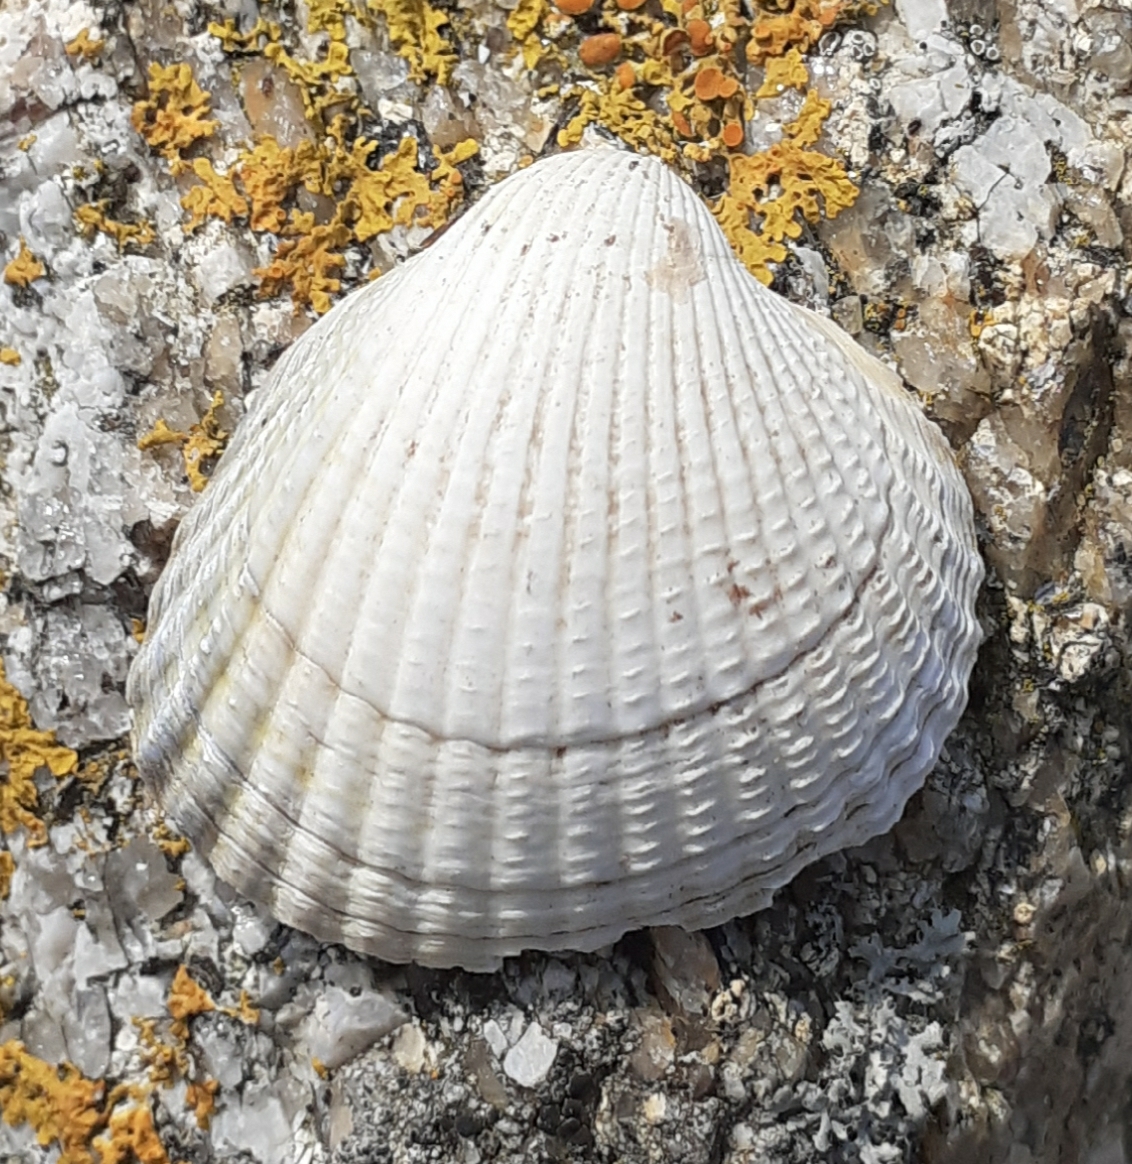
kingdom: Animalia
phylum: Mollusca
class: Bivalvia
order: Cardiida
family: Cardiidae
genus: Cerastoderma
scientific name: Cerastoderma edule
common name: Common cockle
